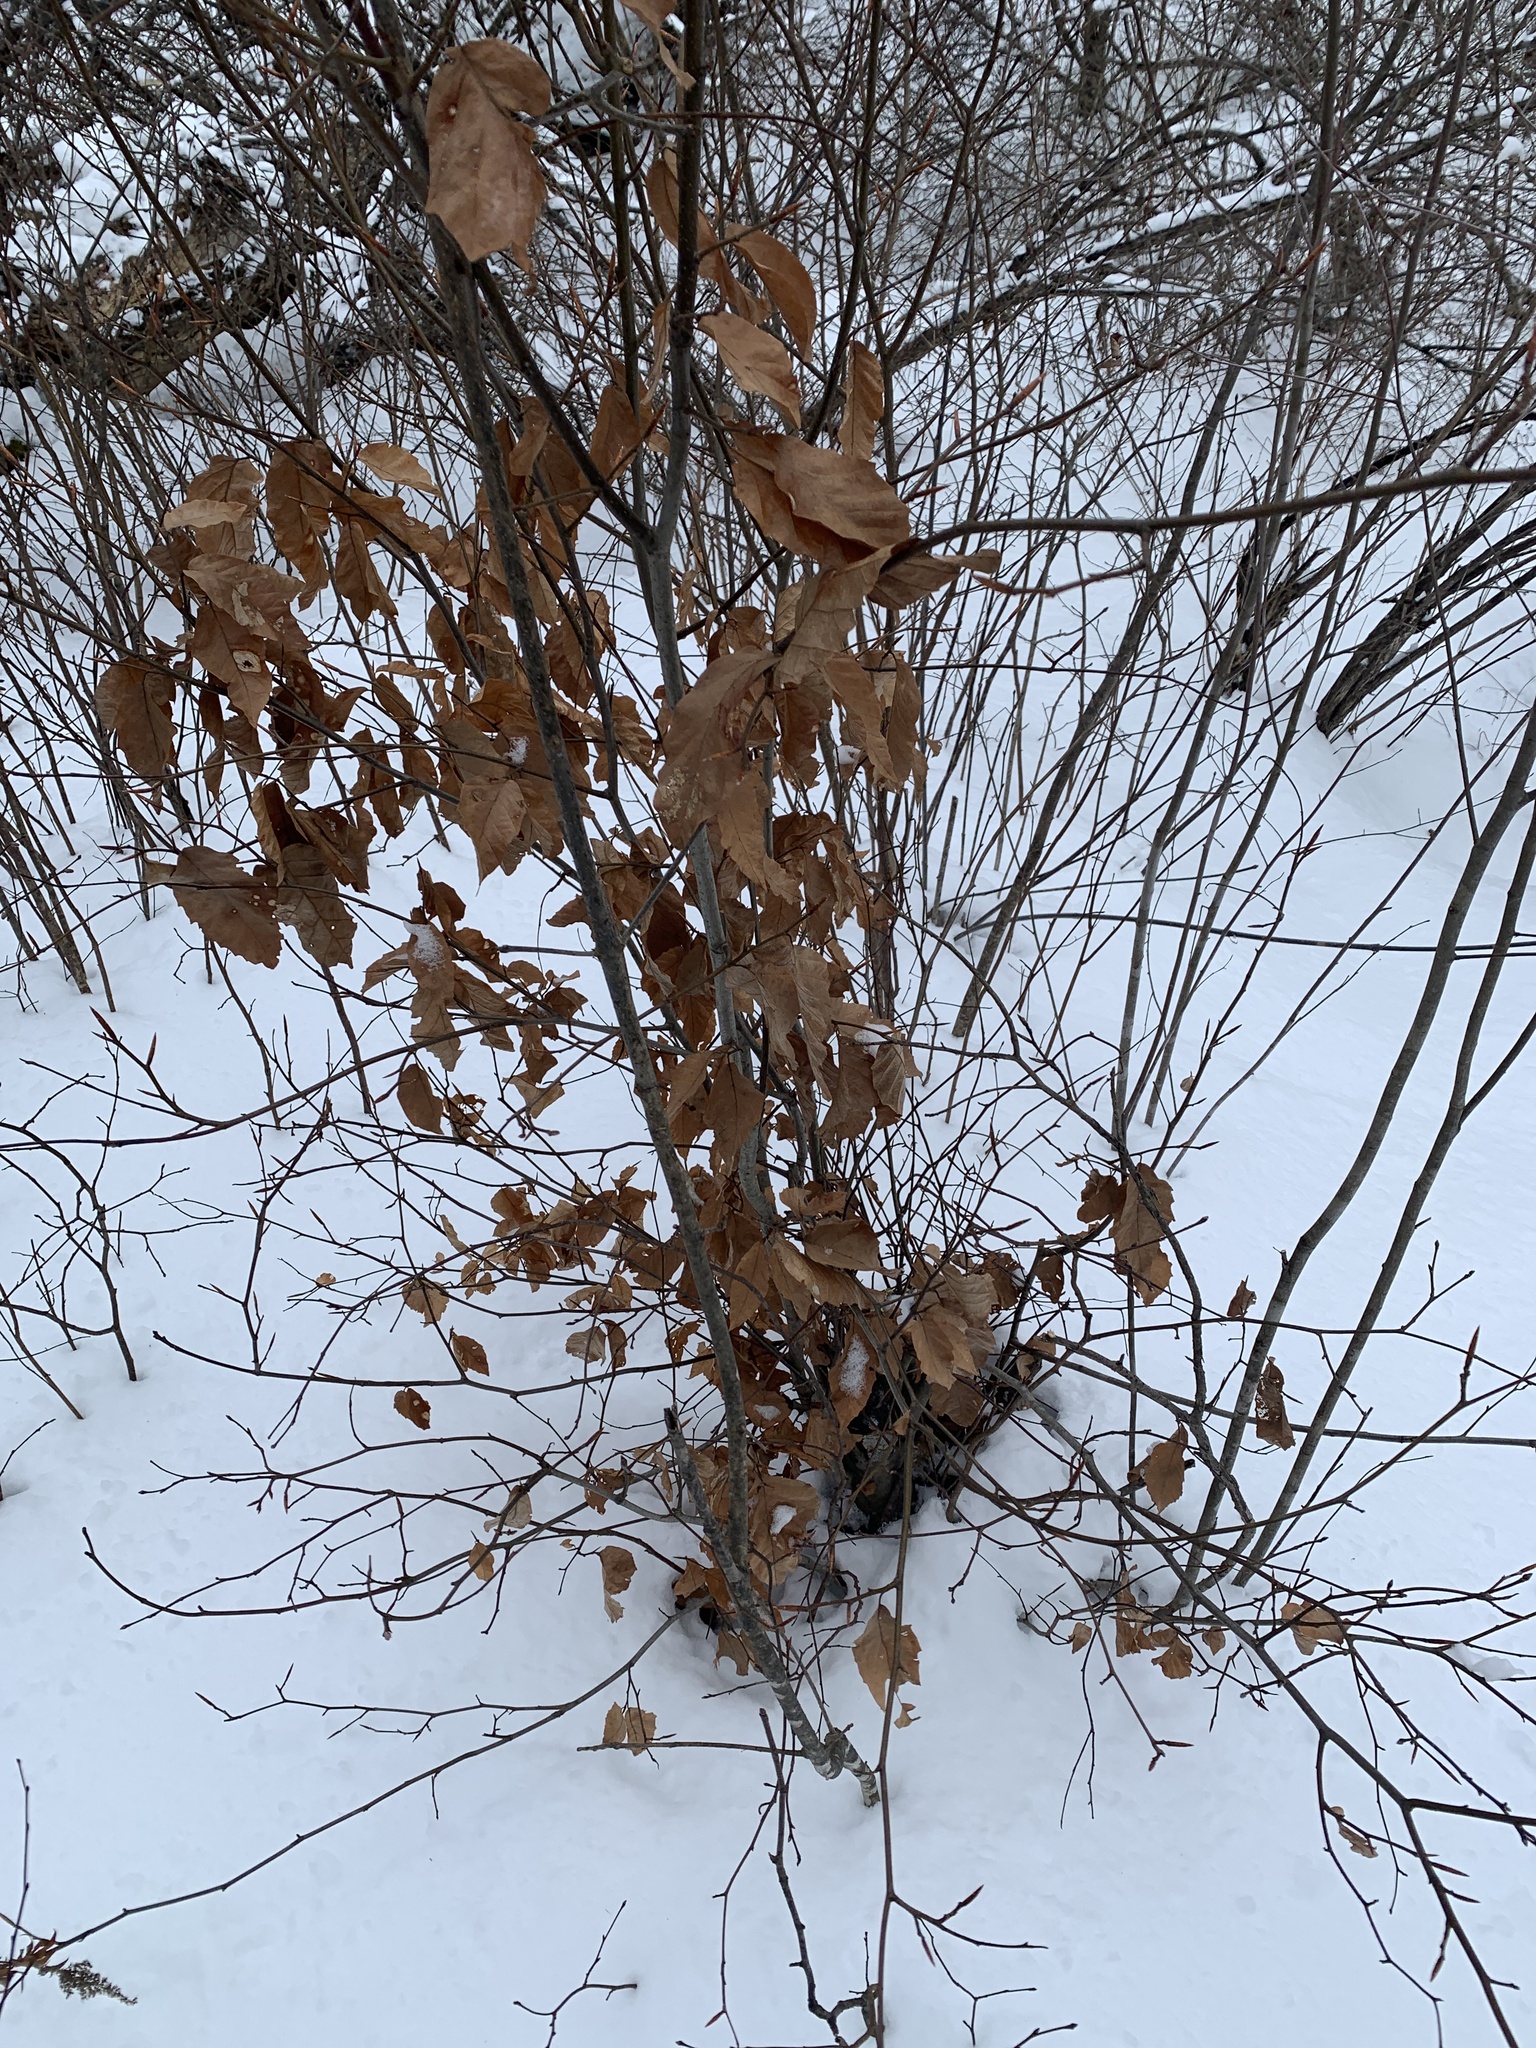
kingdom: Plantae
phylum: Tracheophyta
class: Magnoliopsida
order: Fagales
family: Fagaceae
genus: Fagus
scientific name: Fagus grandifolia
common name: American beech
